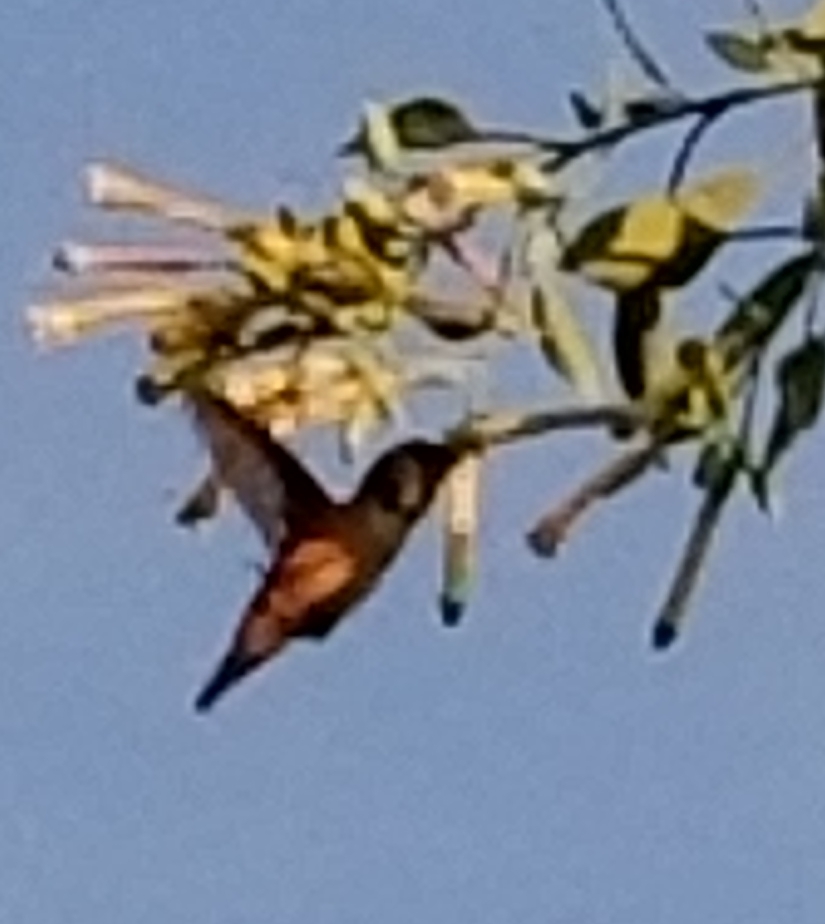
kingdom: Animalia
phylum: Chordata
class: Aves
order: Apodiformes
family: Trochilidae
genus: Selasphorus
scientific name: Selasphorus
